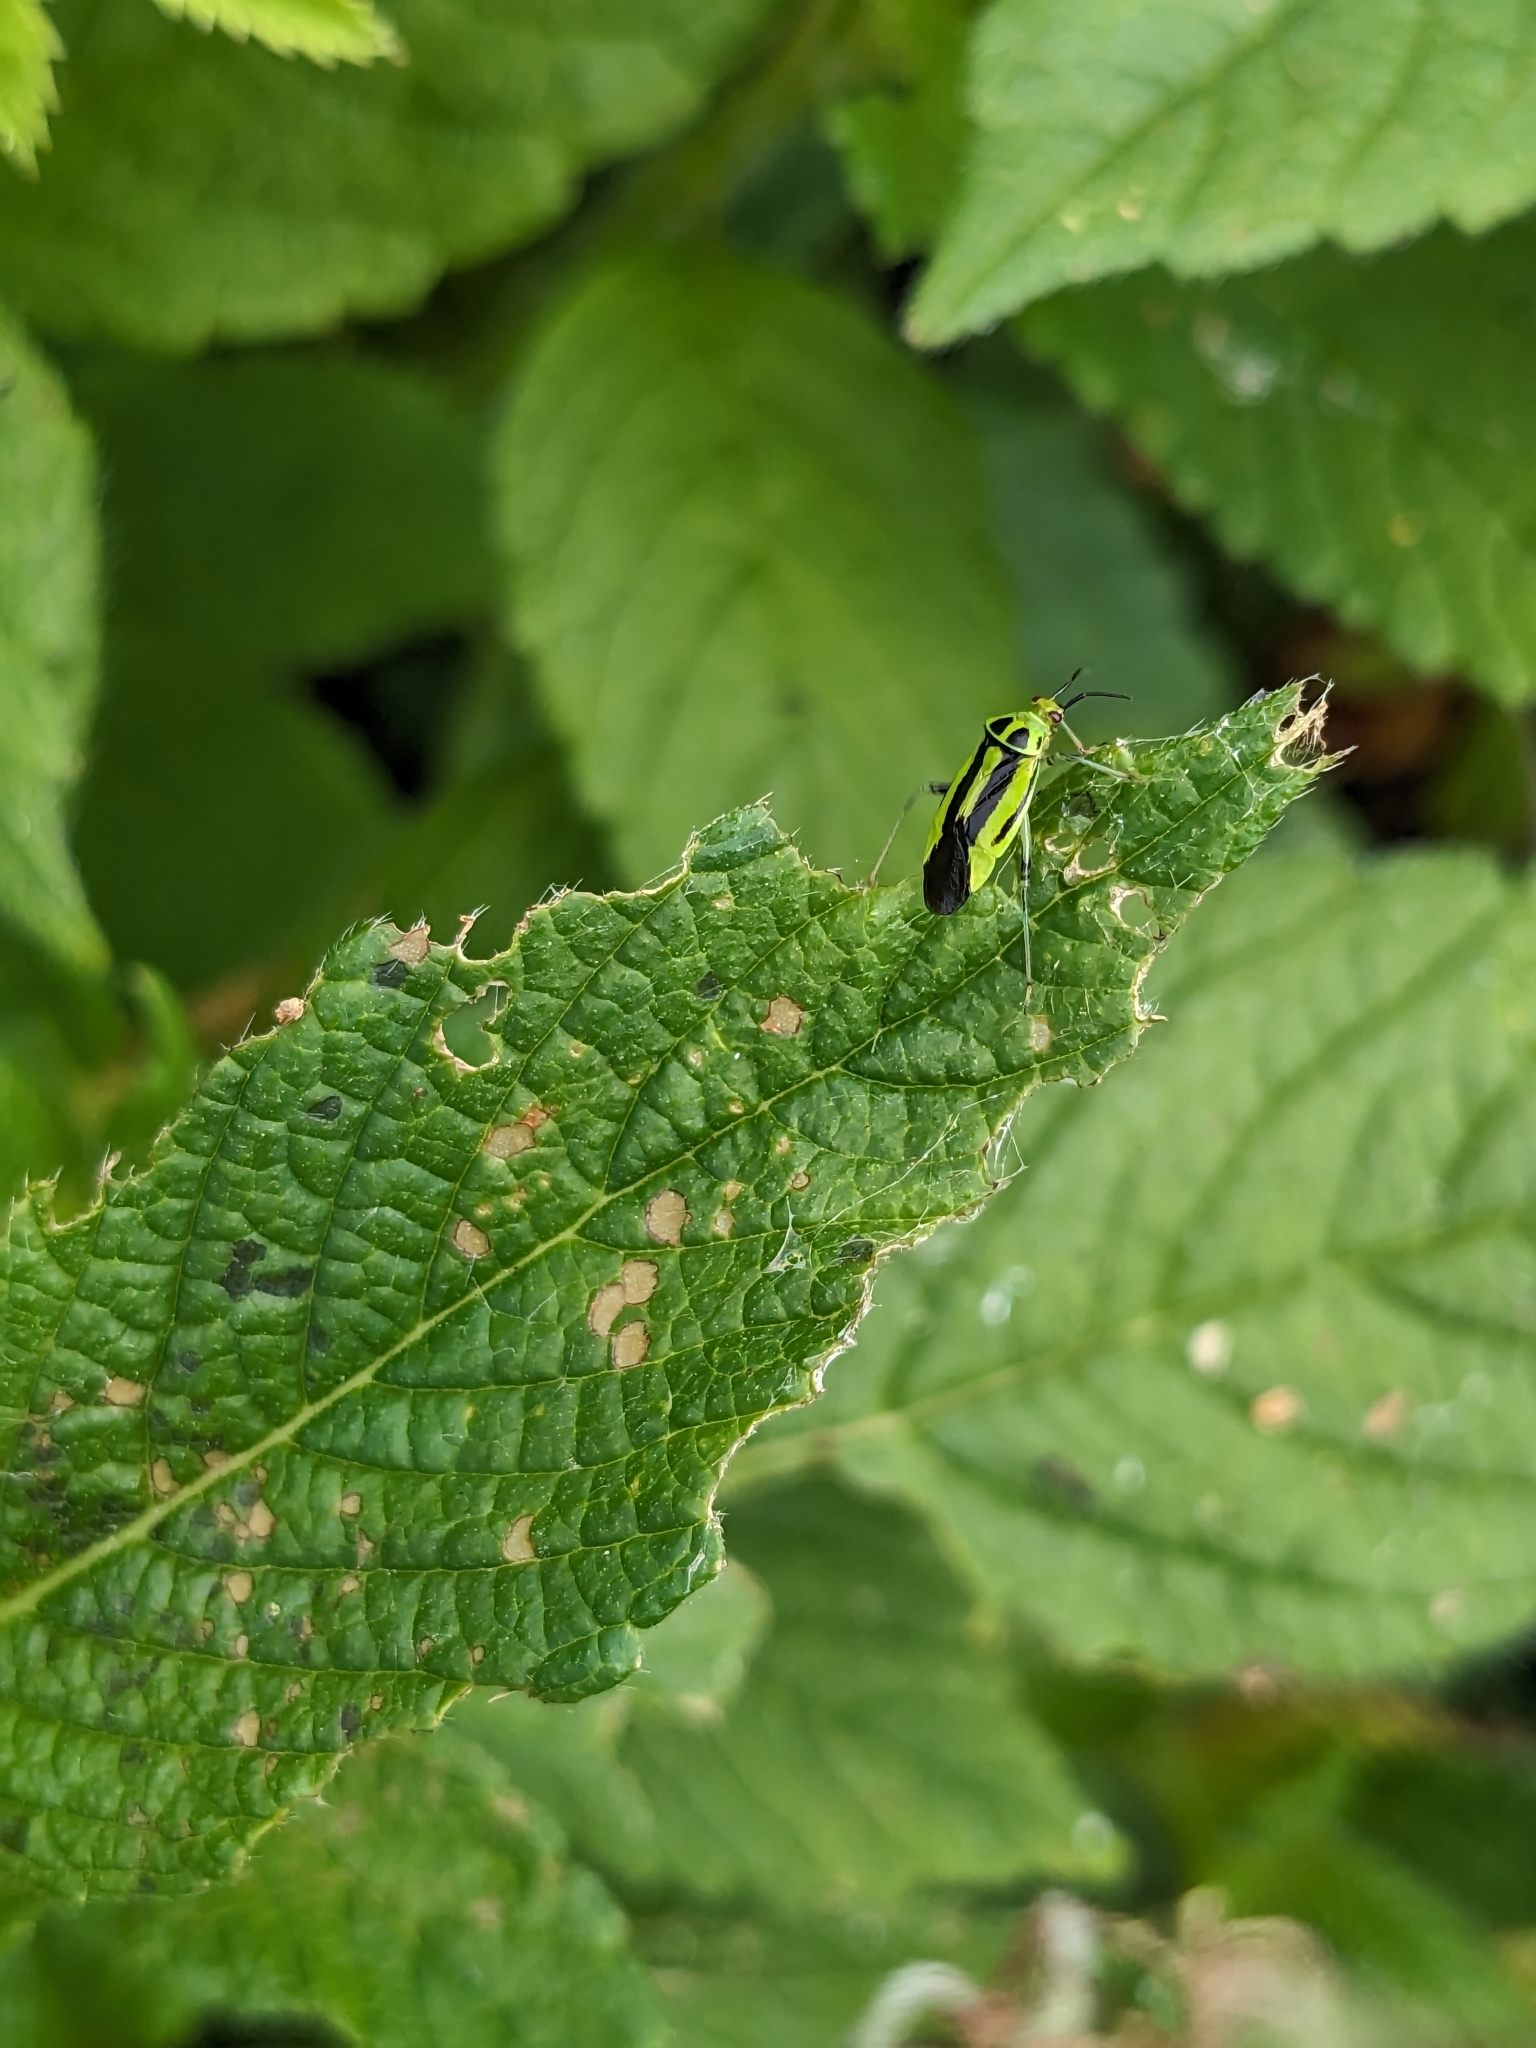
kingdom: Animalia
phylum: Arthropoda
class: Insecta
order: Hemiptera
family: Miridae
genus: Poecilocapsus
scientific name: Poecilocapsus lineatus
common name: Four-lined plant bug
